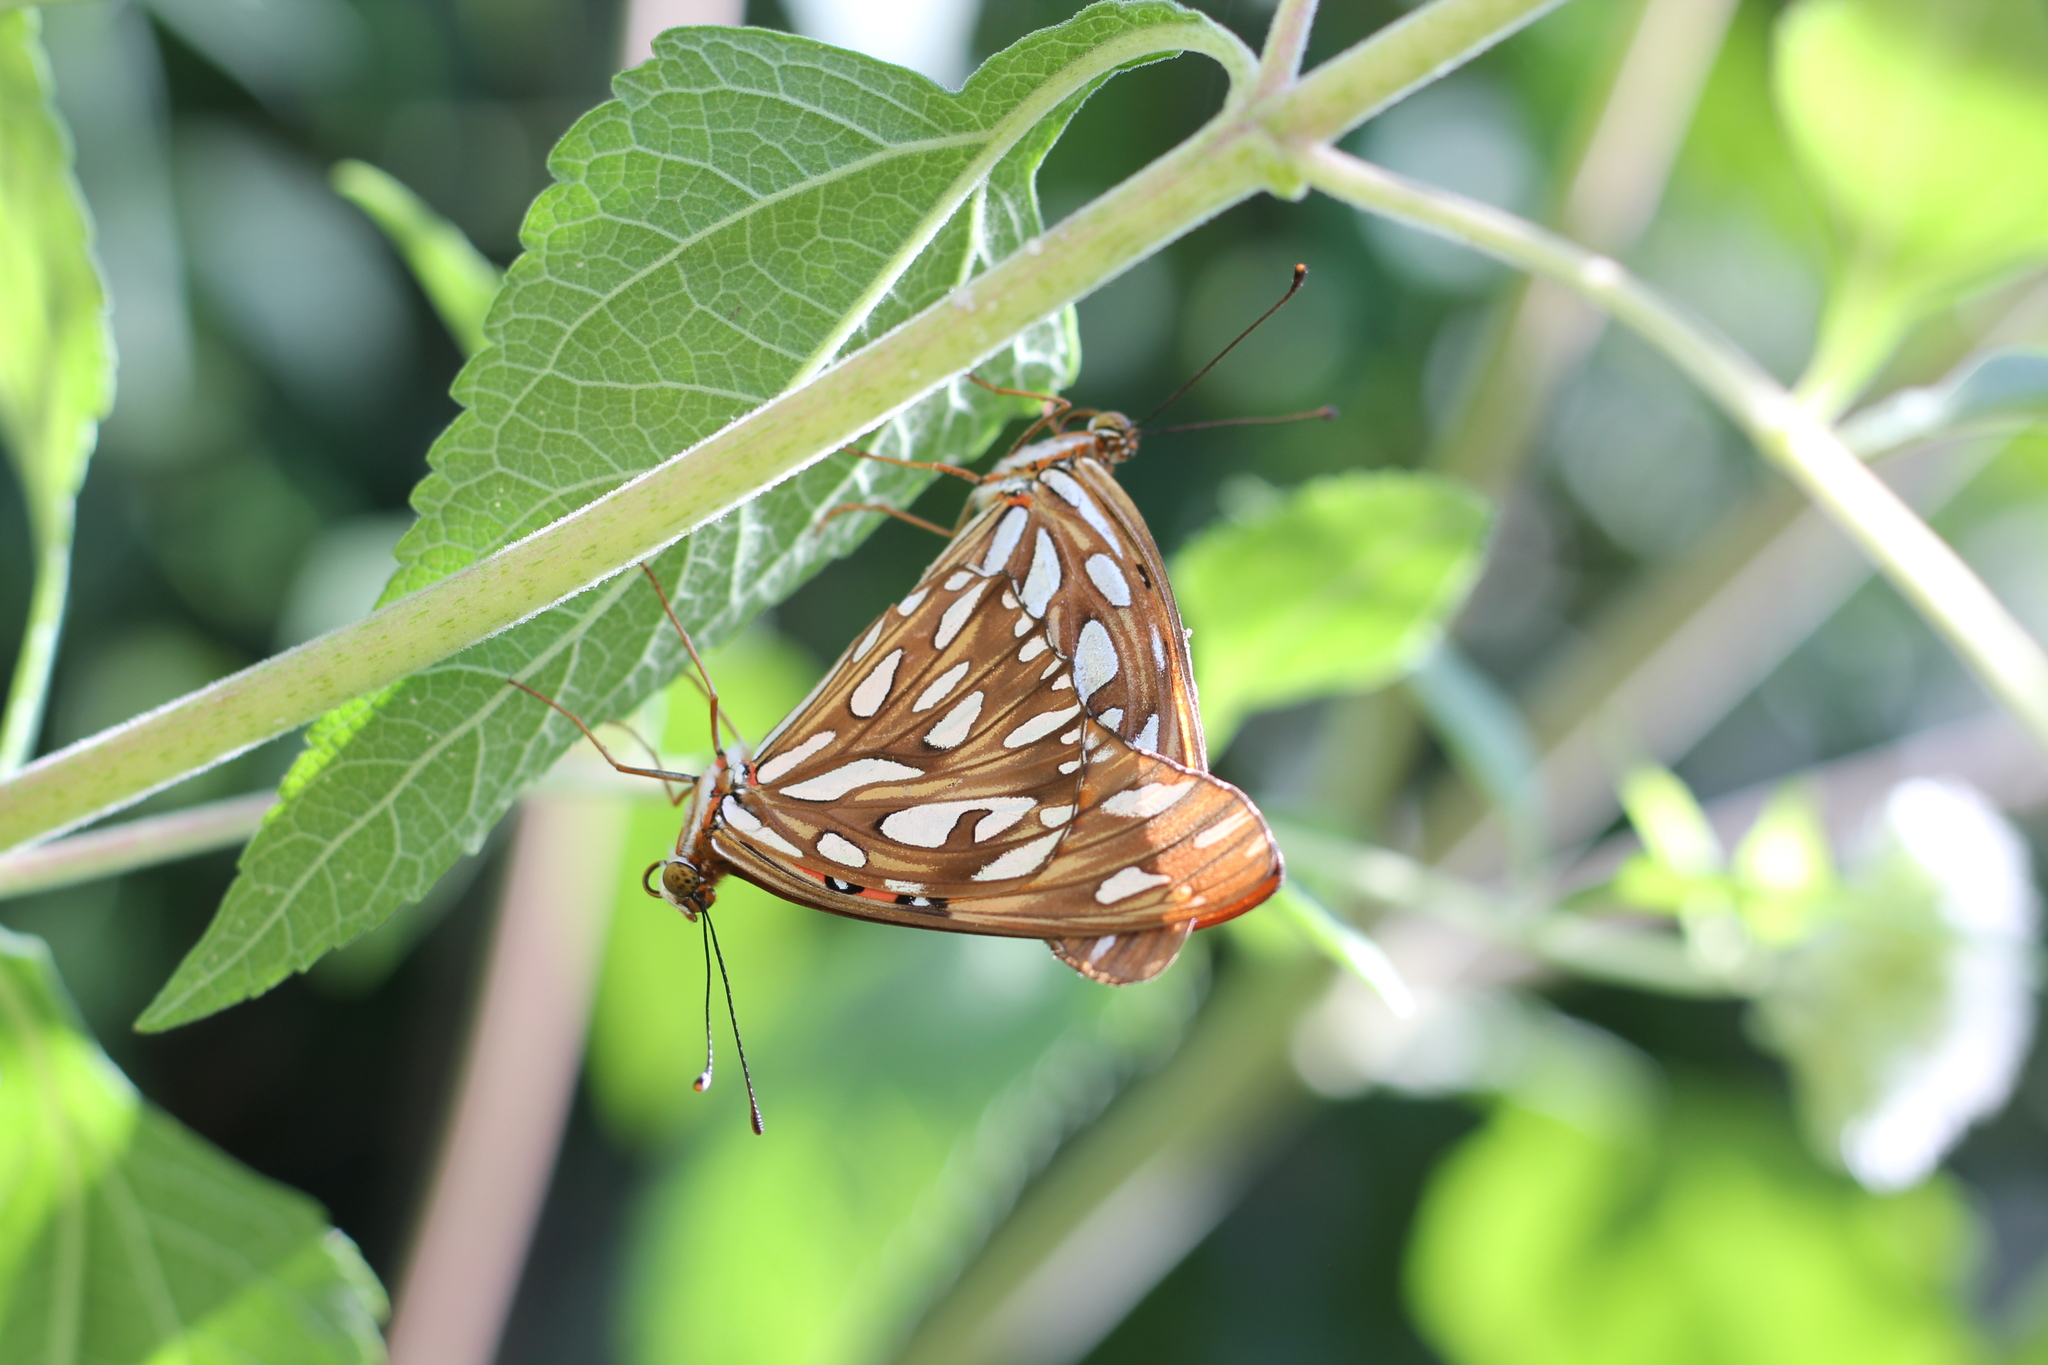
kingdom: Animalia
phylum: Arthropoda
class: Insecta
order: Lepidoptera
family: Nymphalidae
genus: Dione
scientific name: Dione vanillae
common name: Gulf fritillary
